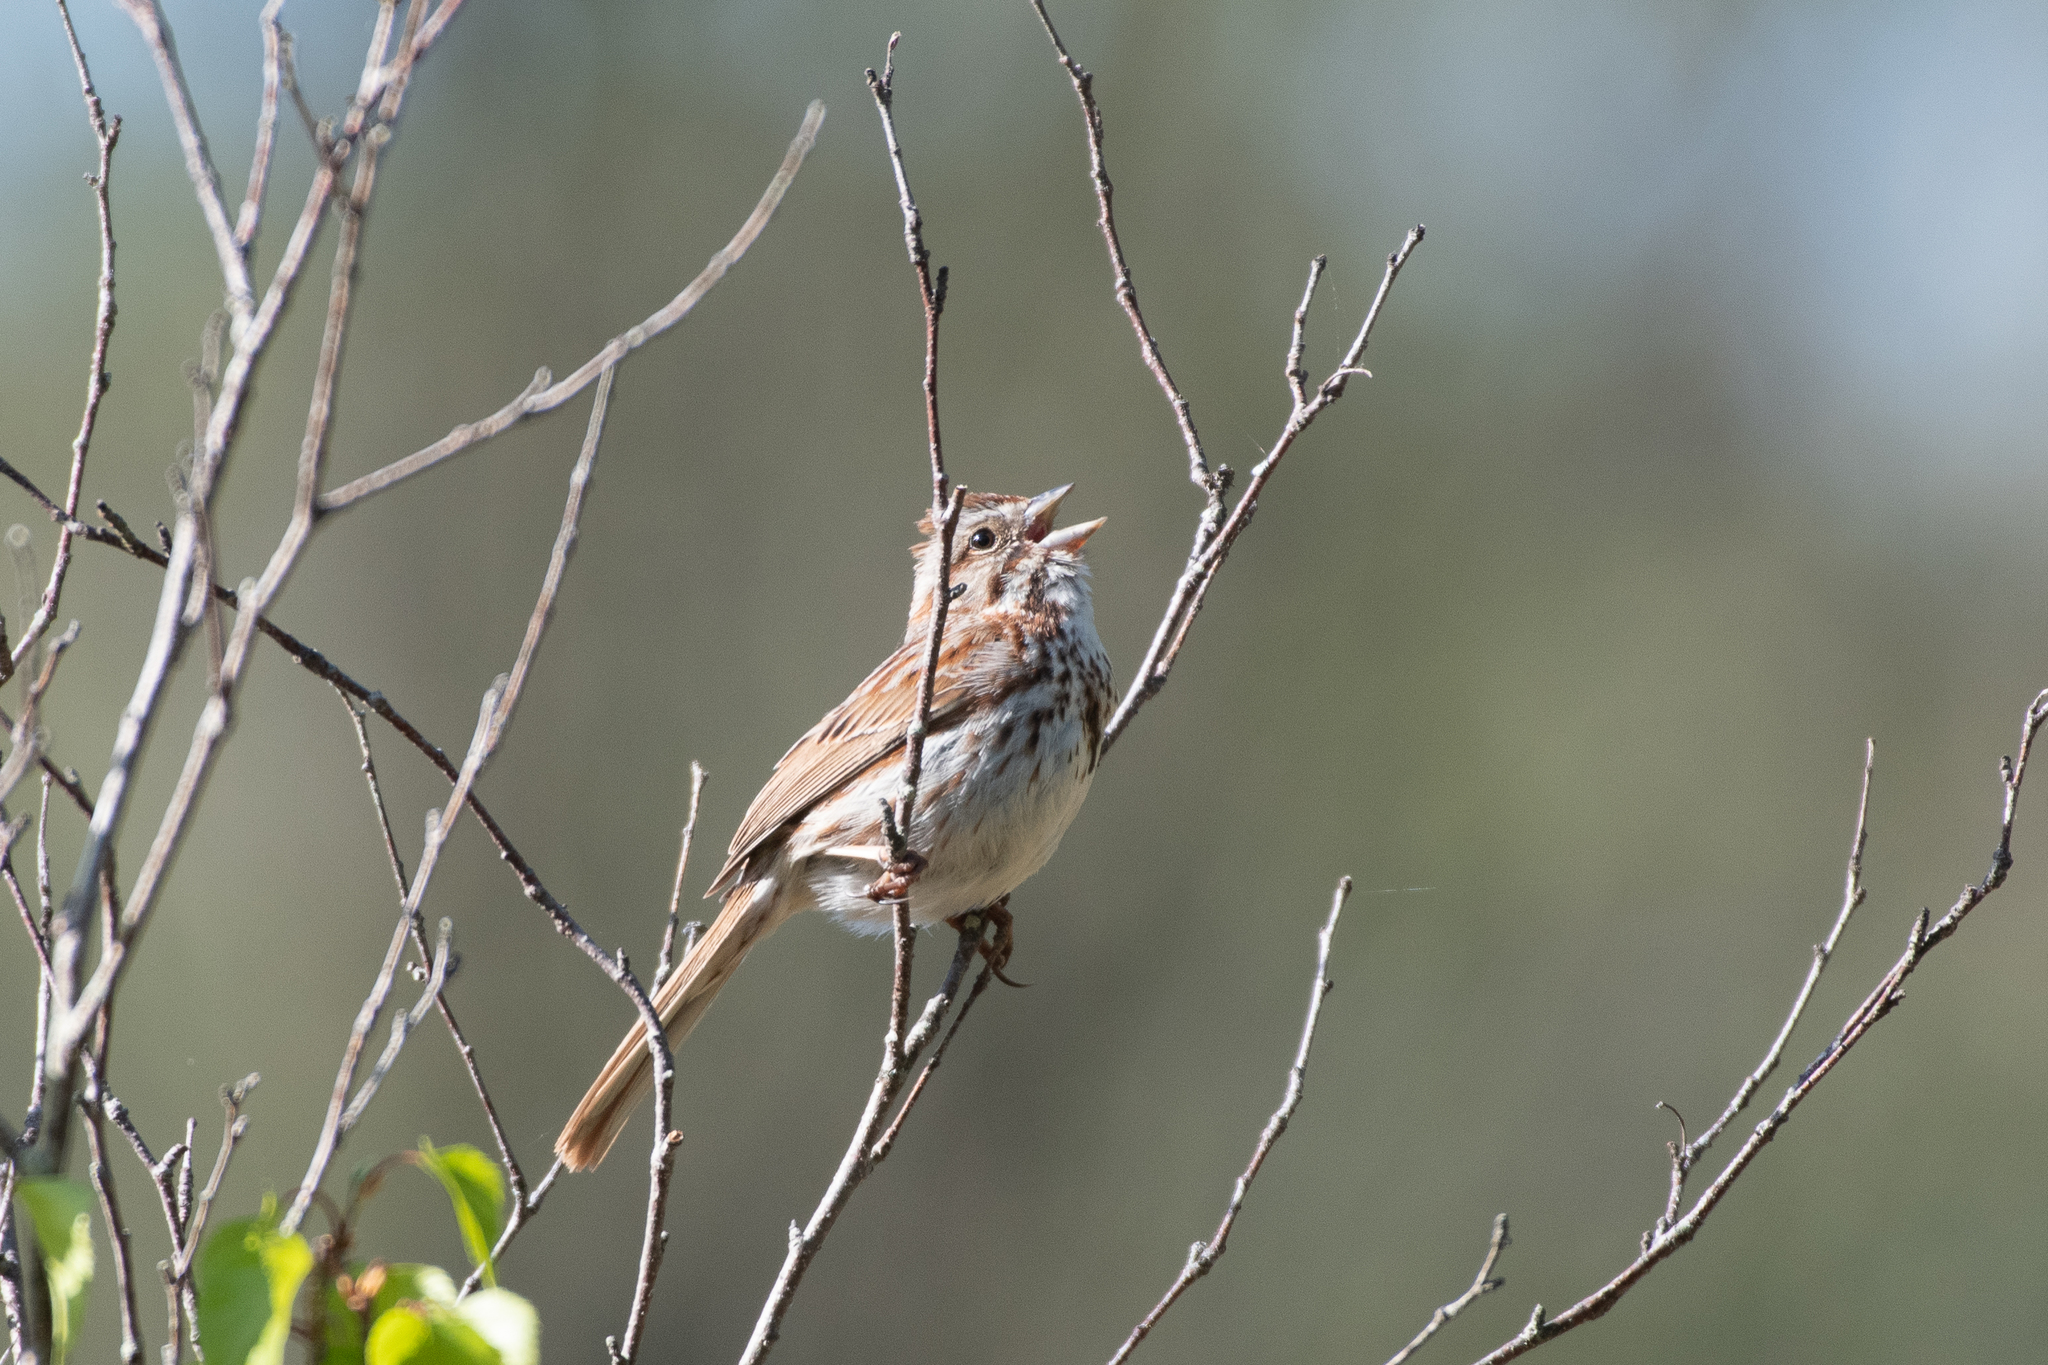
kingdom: Animalia
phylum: Chordata
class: Aves
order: Passeriformes
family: Passerellidae
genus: Melospiza
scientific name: Melospiza melodia
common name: Song sparrow
